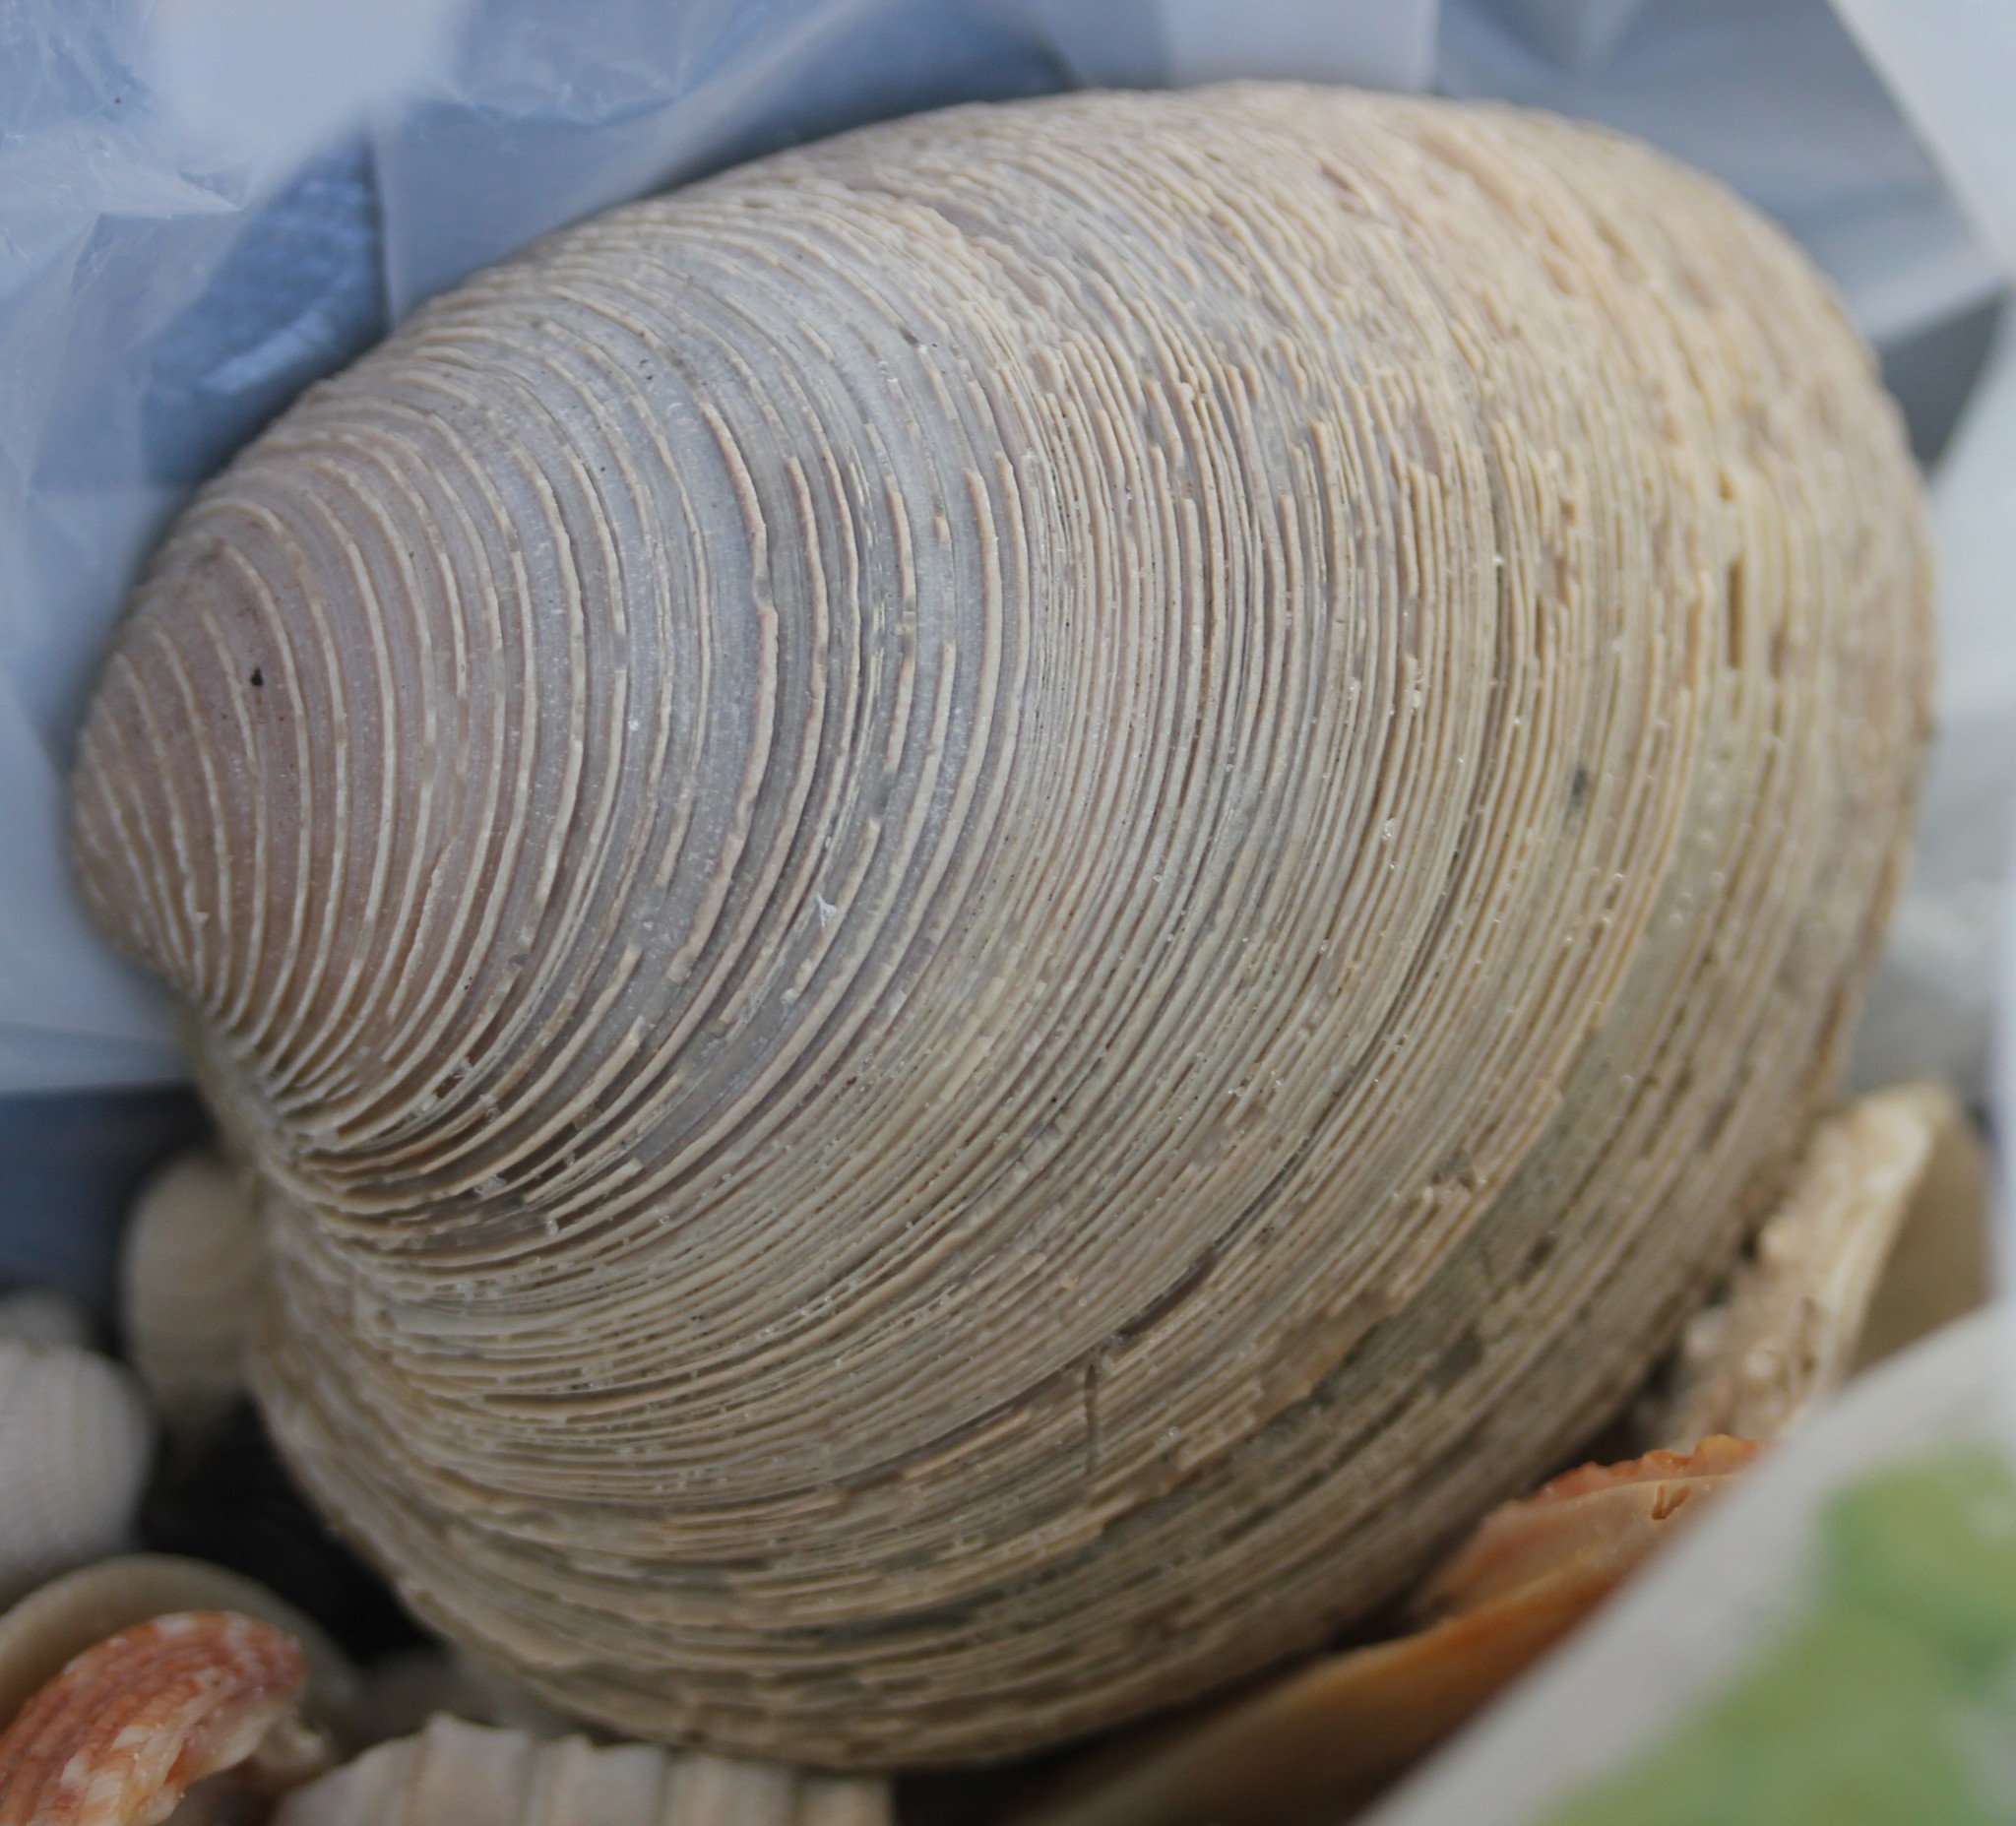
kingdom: Animalia
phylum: Mollusca
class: Bivalvia
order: Venerida
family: Veneridae
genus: Mercenaria
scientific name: Mercenaria campechiensis
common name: Südliche quahog-muschel
